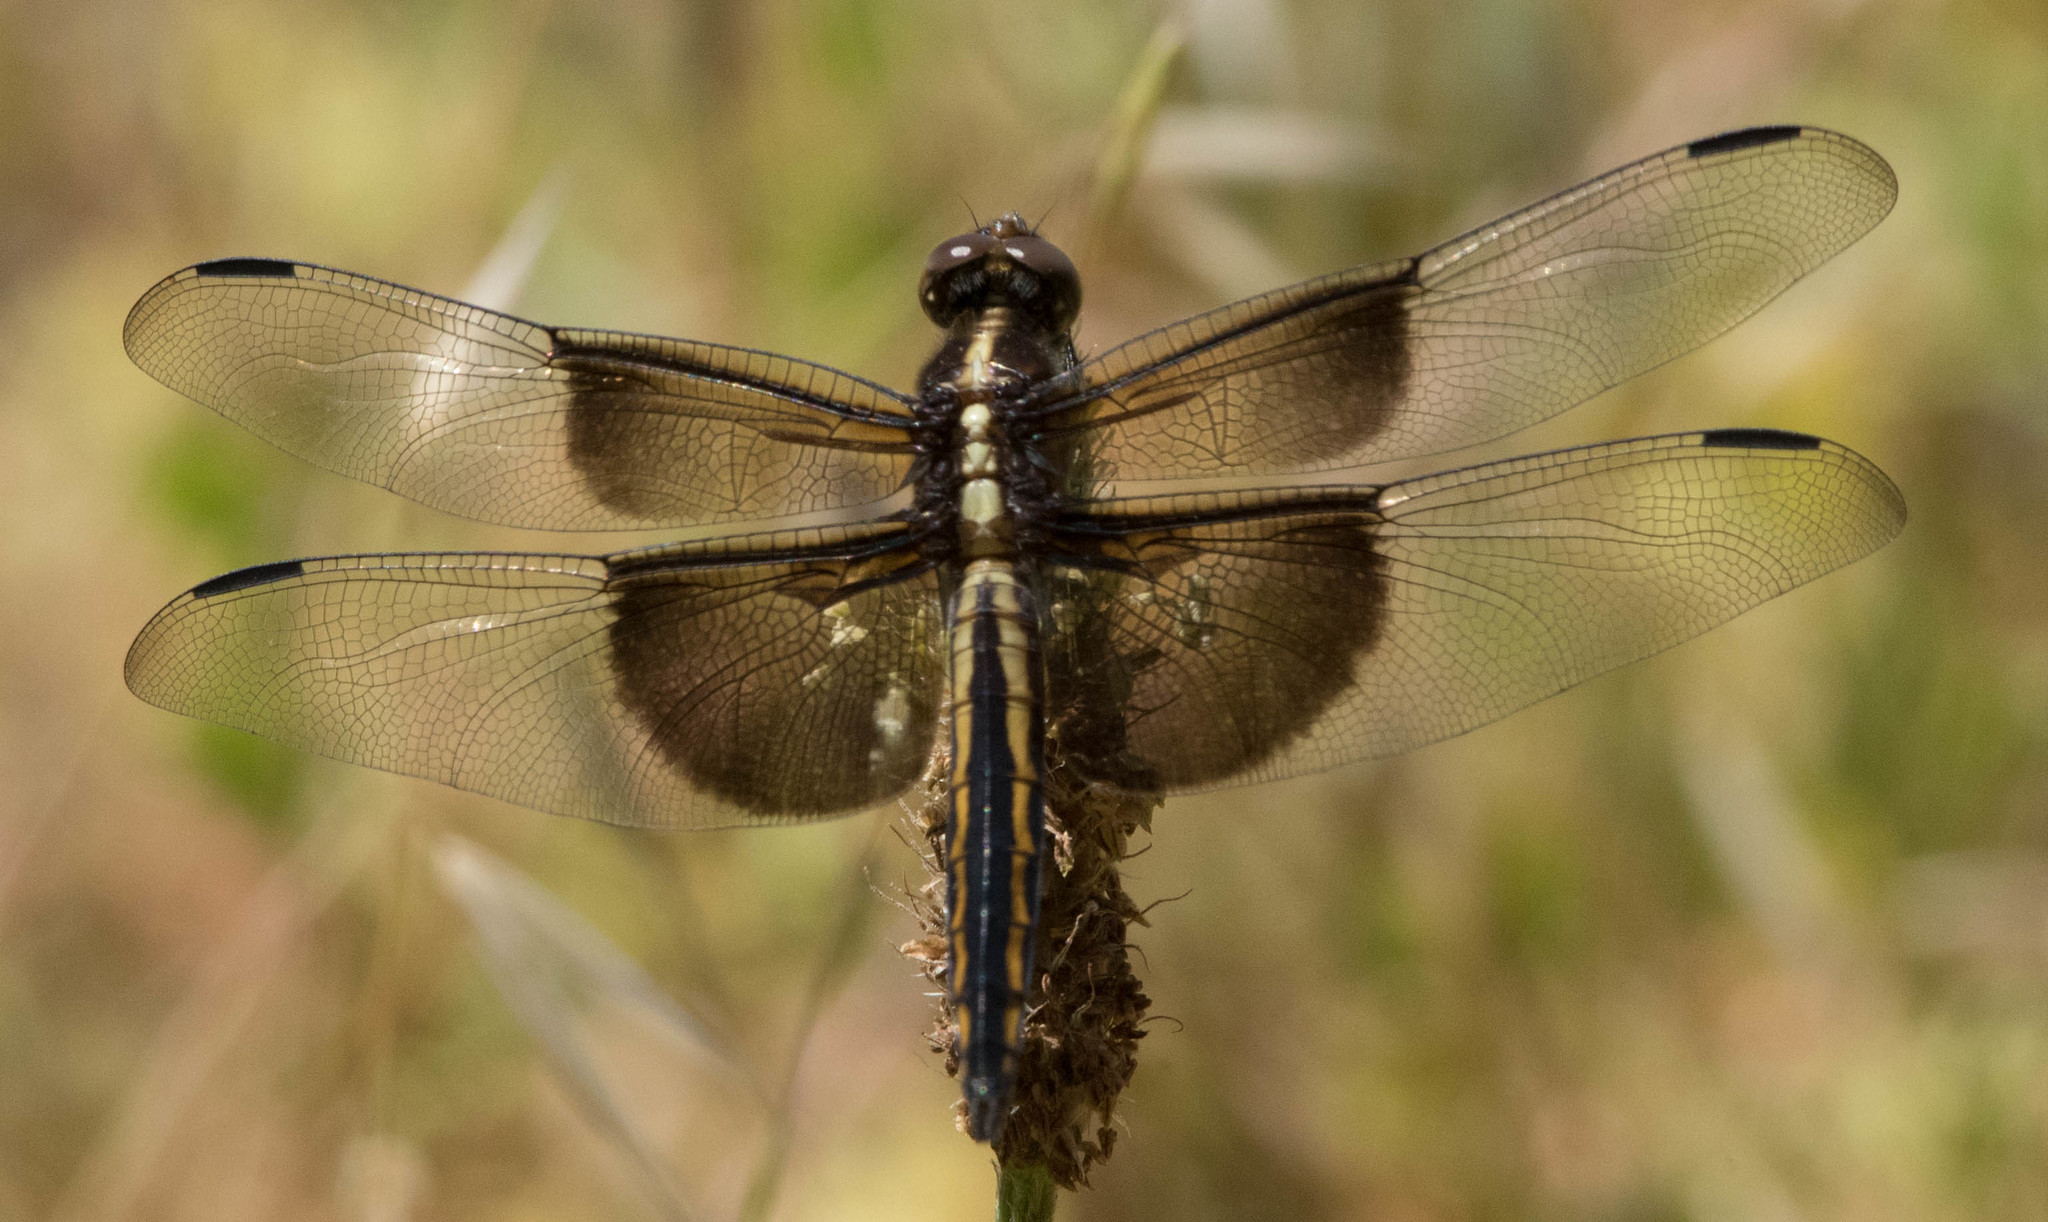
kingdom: Animalia
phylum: Arthropoda
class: Insecta
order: Odonata
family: Libellulidae
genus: Libellula
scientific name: Libellula luctuosa
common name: Widow skimmer
